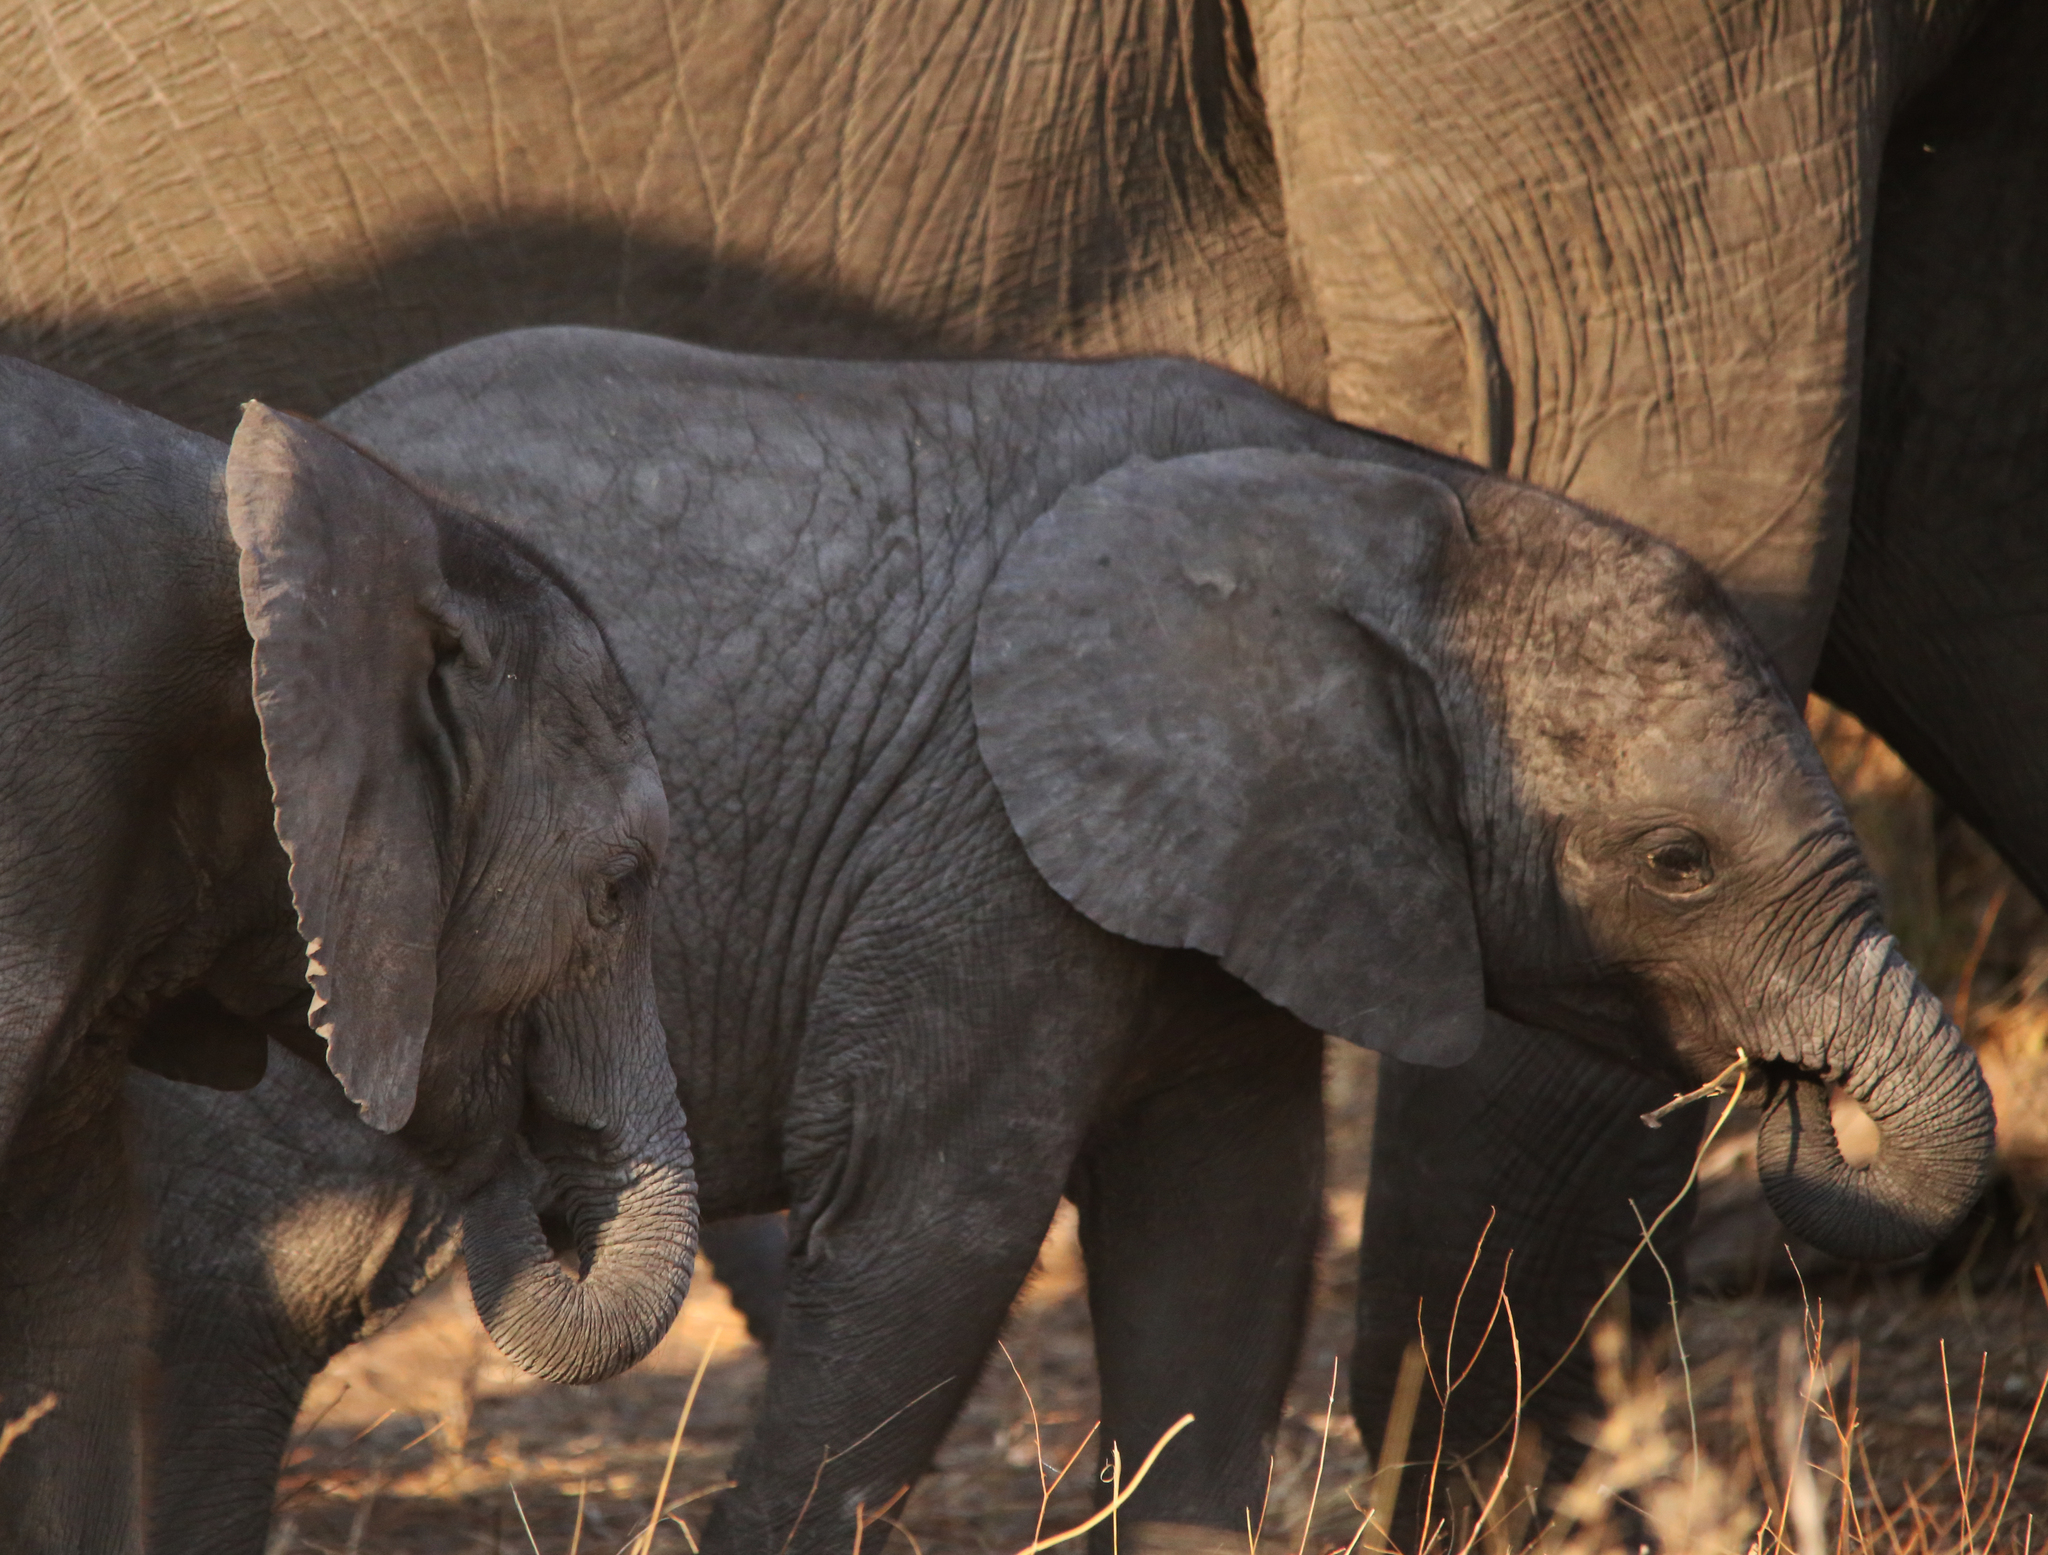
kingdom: Animalia
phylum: Chordata
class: Mammalia
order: Proboscidea
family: Elephantidae
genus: Loxodonta
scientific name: Loxodonta africana
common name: African elephant
